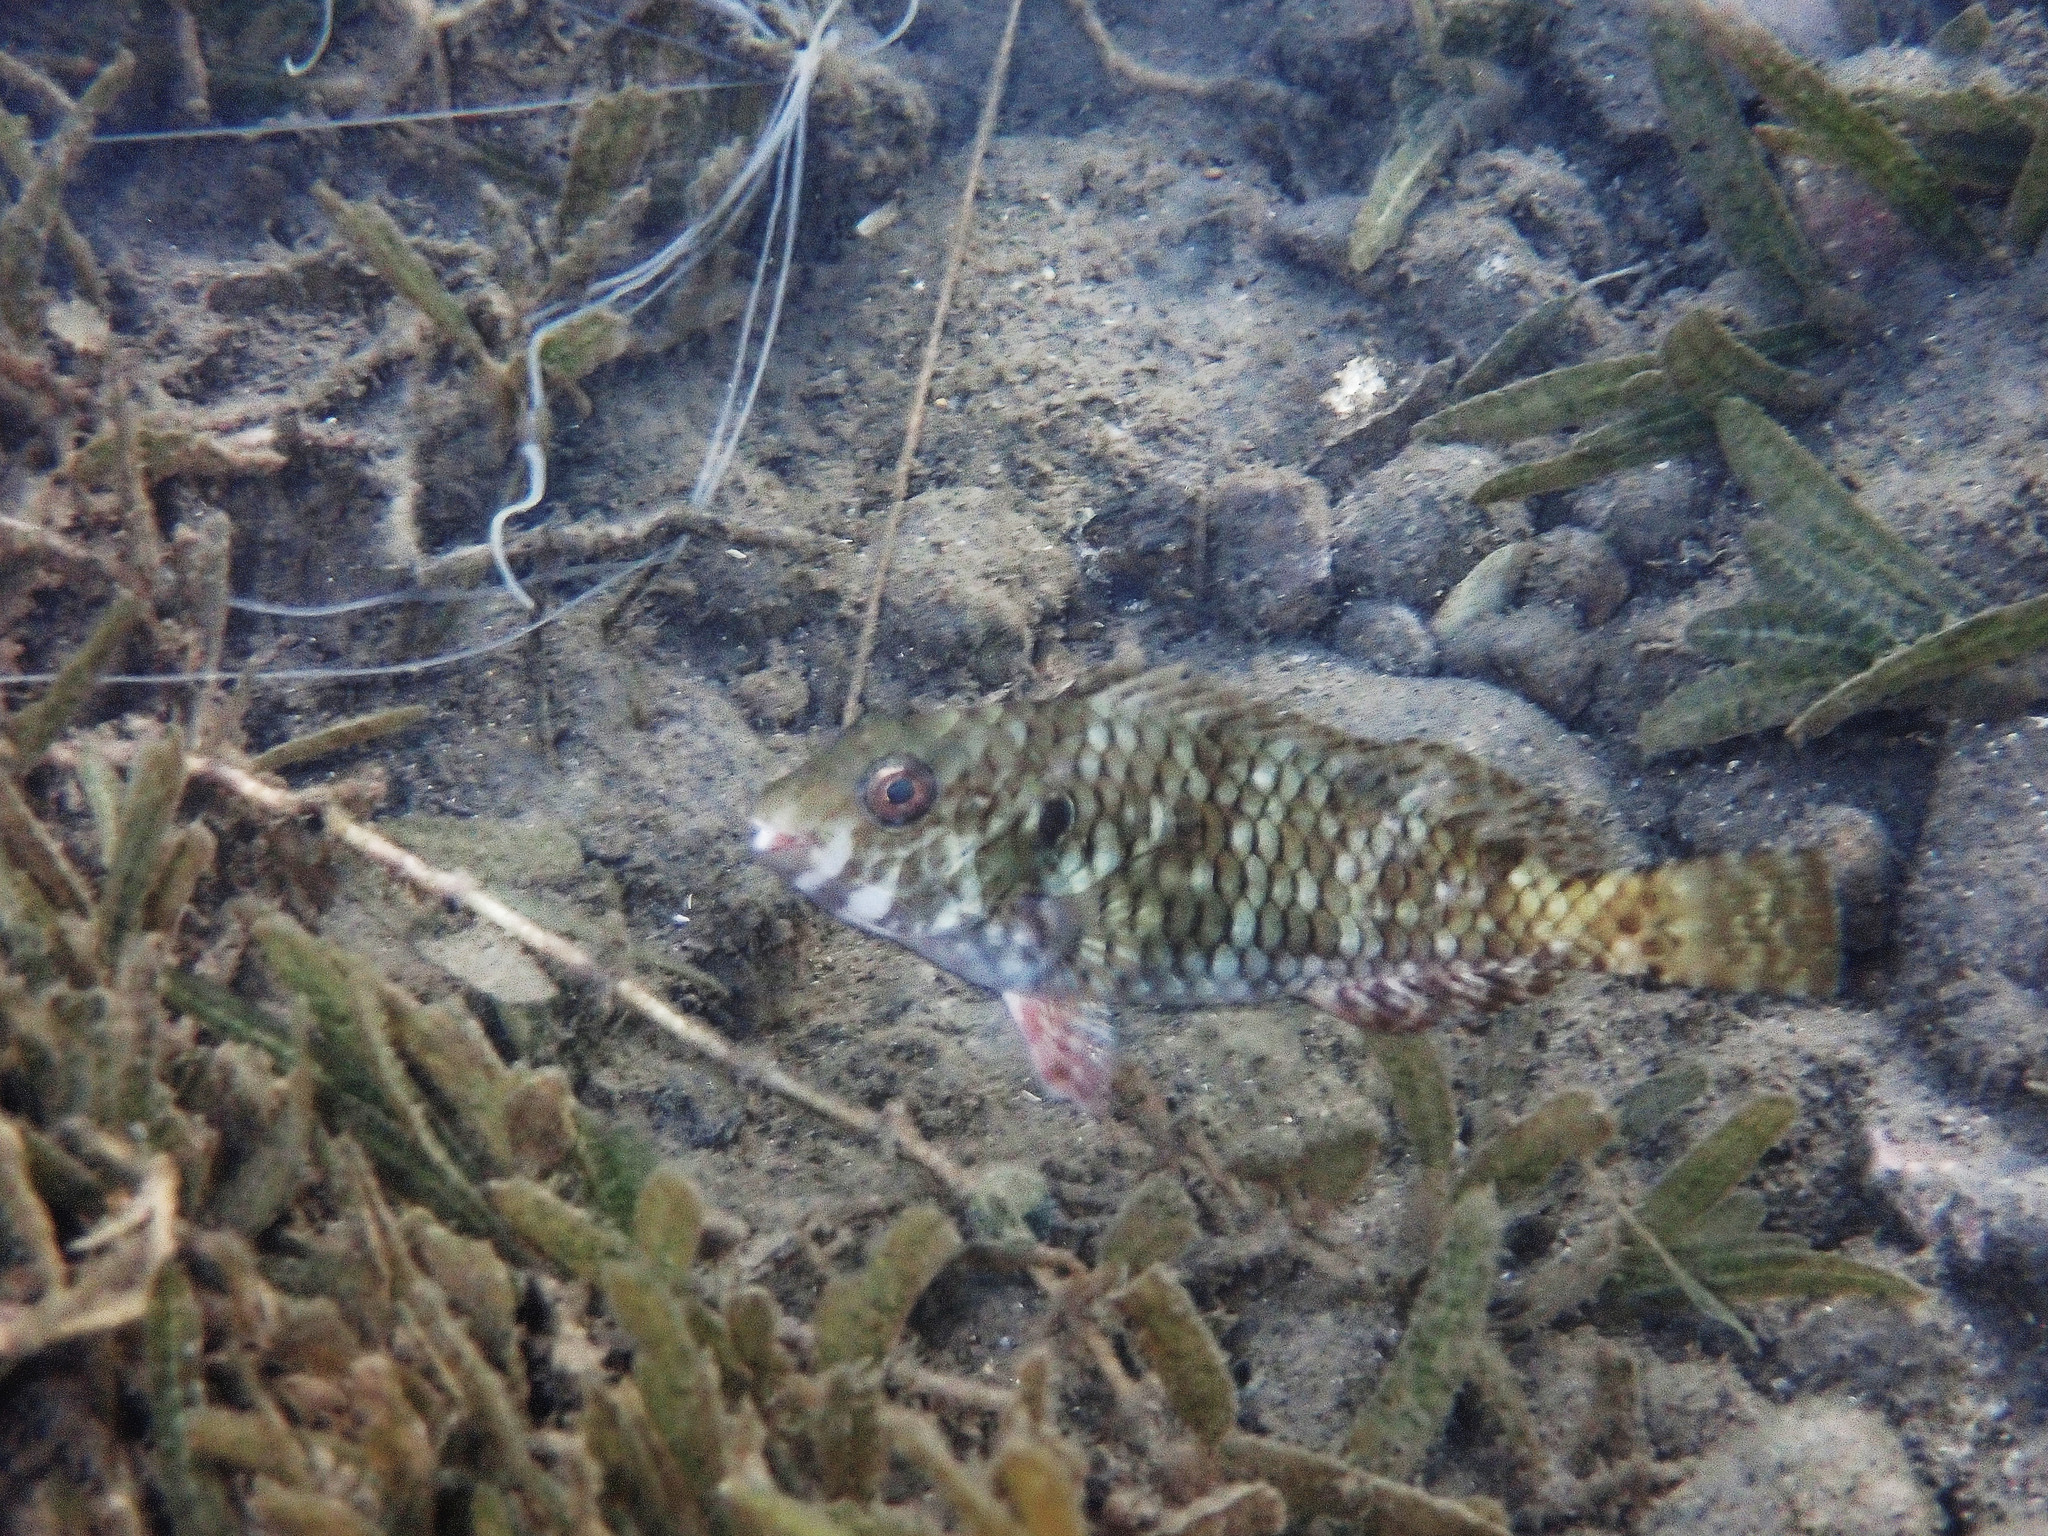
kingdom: Animalia
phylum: Chordata
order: Perciformes
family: Scaridae
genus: Sparisoma
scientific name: Sparisoma rubripinne
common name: Redfin parrotfish
